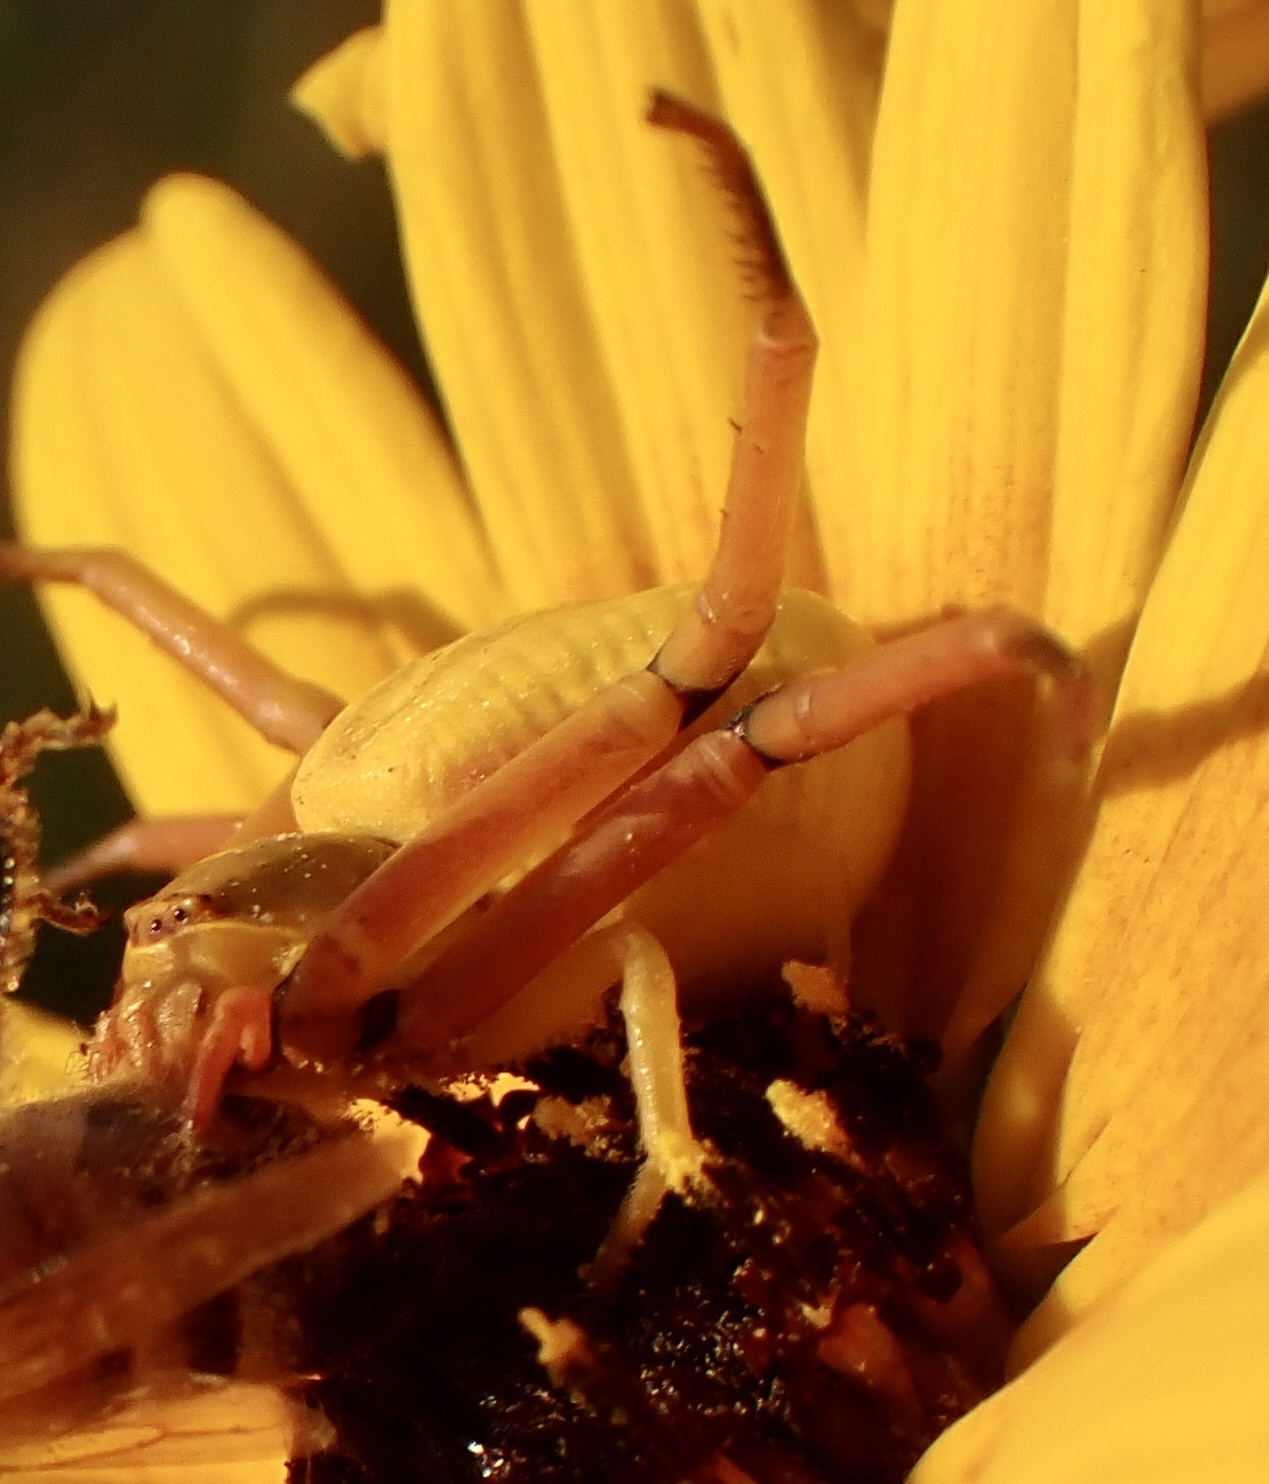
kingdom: Animalia
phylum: Arthropoda
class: Arachnida
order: Araneae
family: Thomisidae
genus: Misumenoides
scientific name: Misumenoides formosipes
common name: White-banded crab spider
